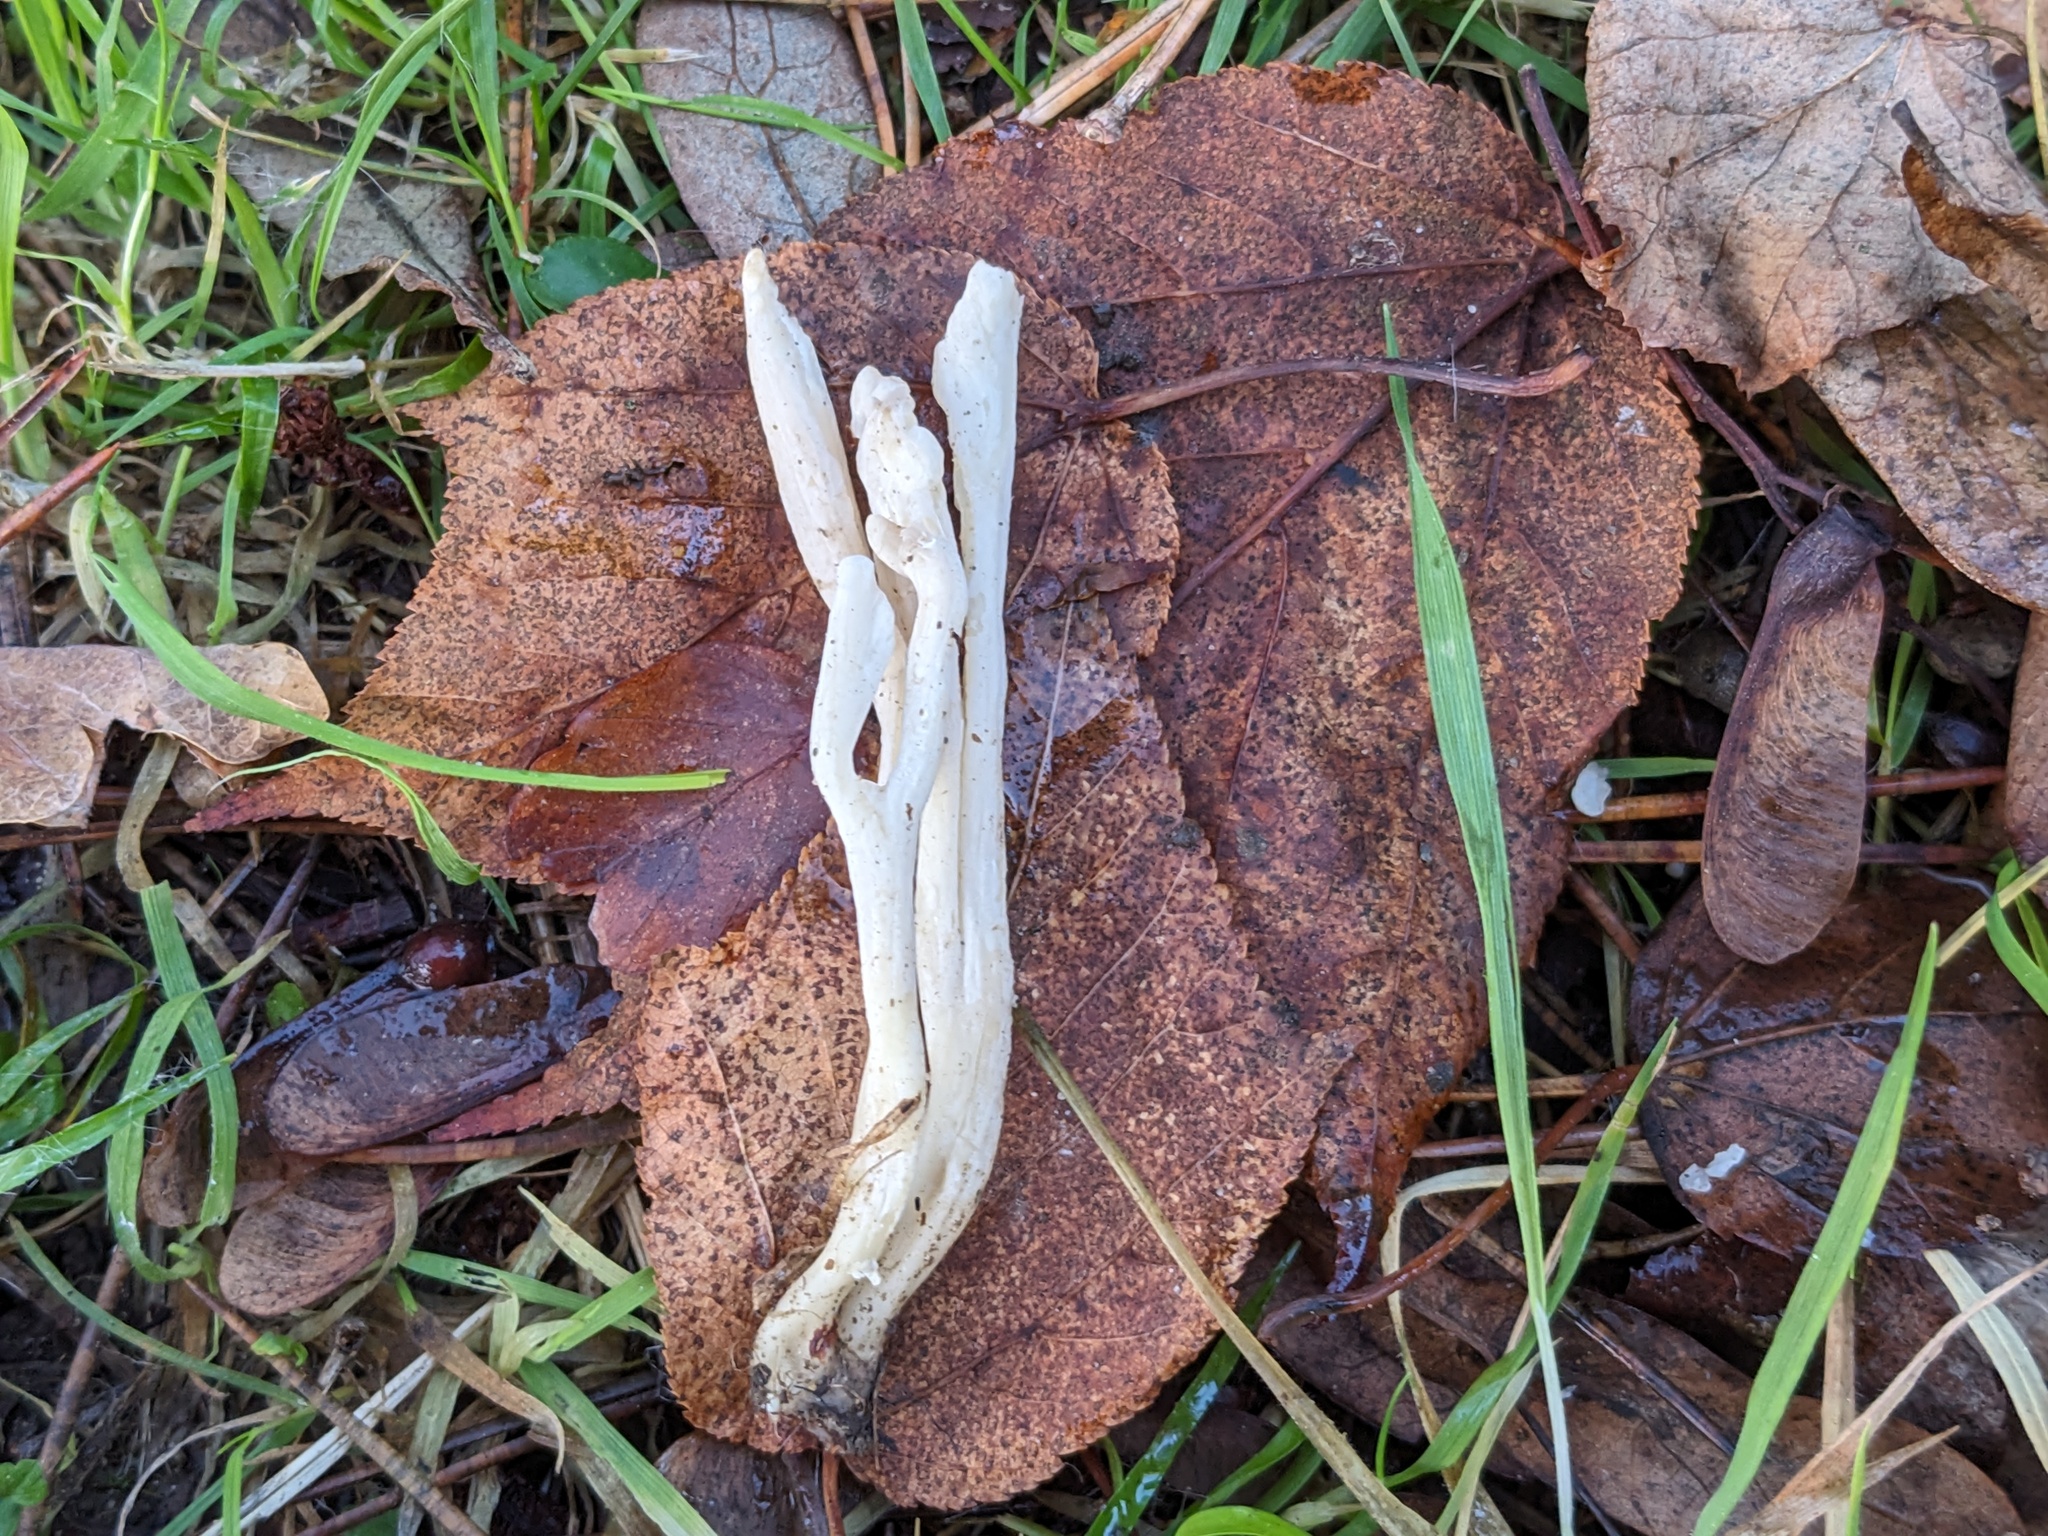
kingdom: Fungi
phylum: Basidiomycota
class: Agaricomycetes
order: Cantharellales
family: Hydnaceae
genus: Clavulina
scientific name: Clavulina rugosa
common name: Wrinkled club
